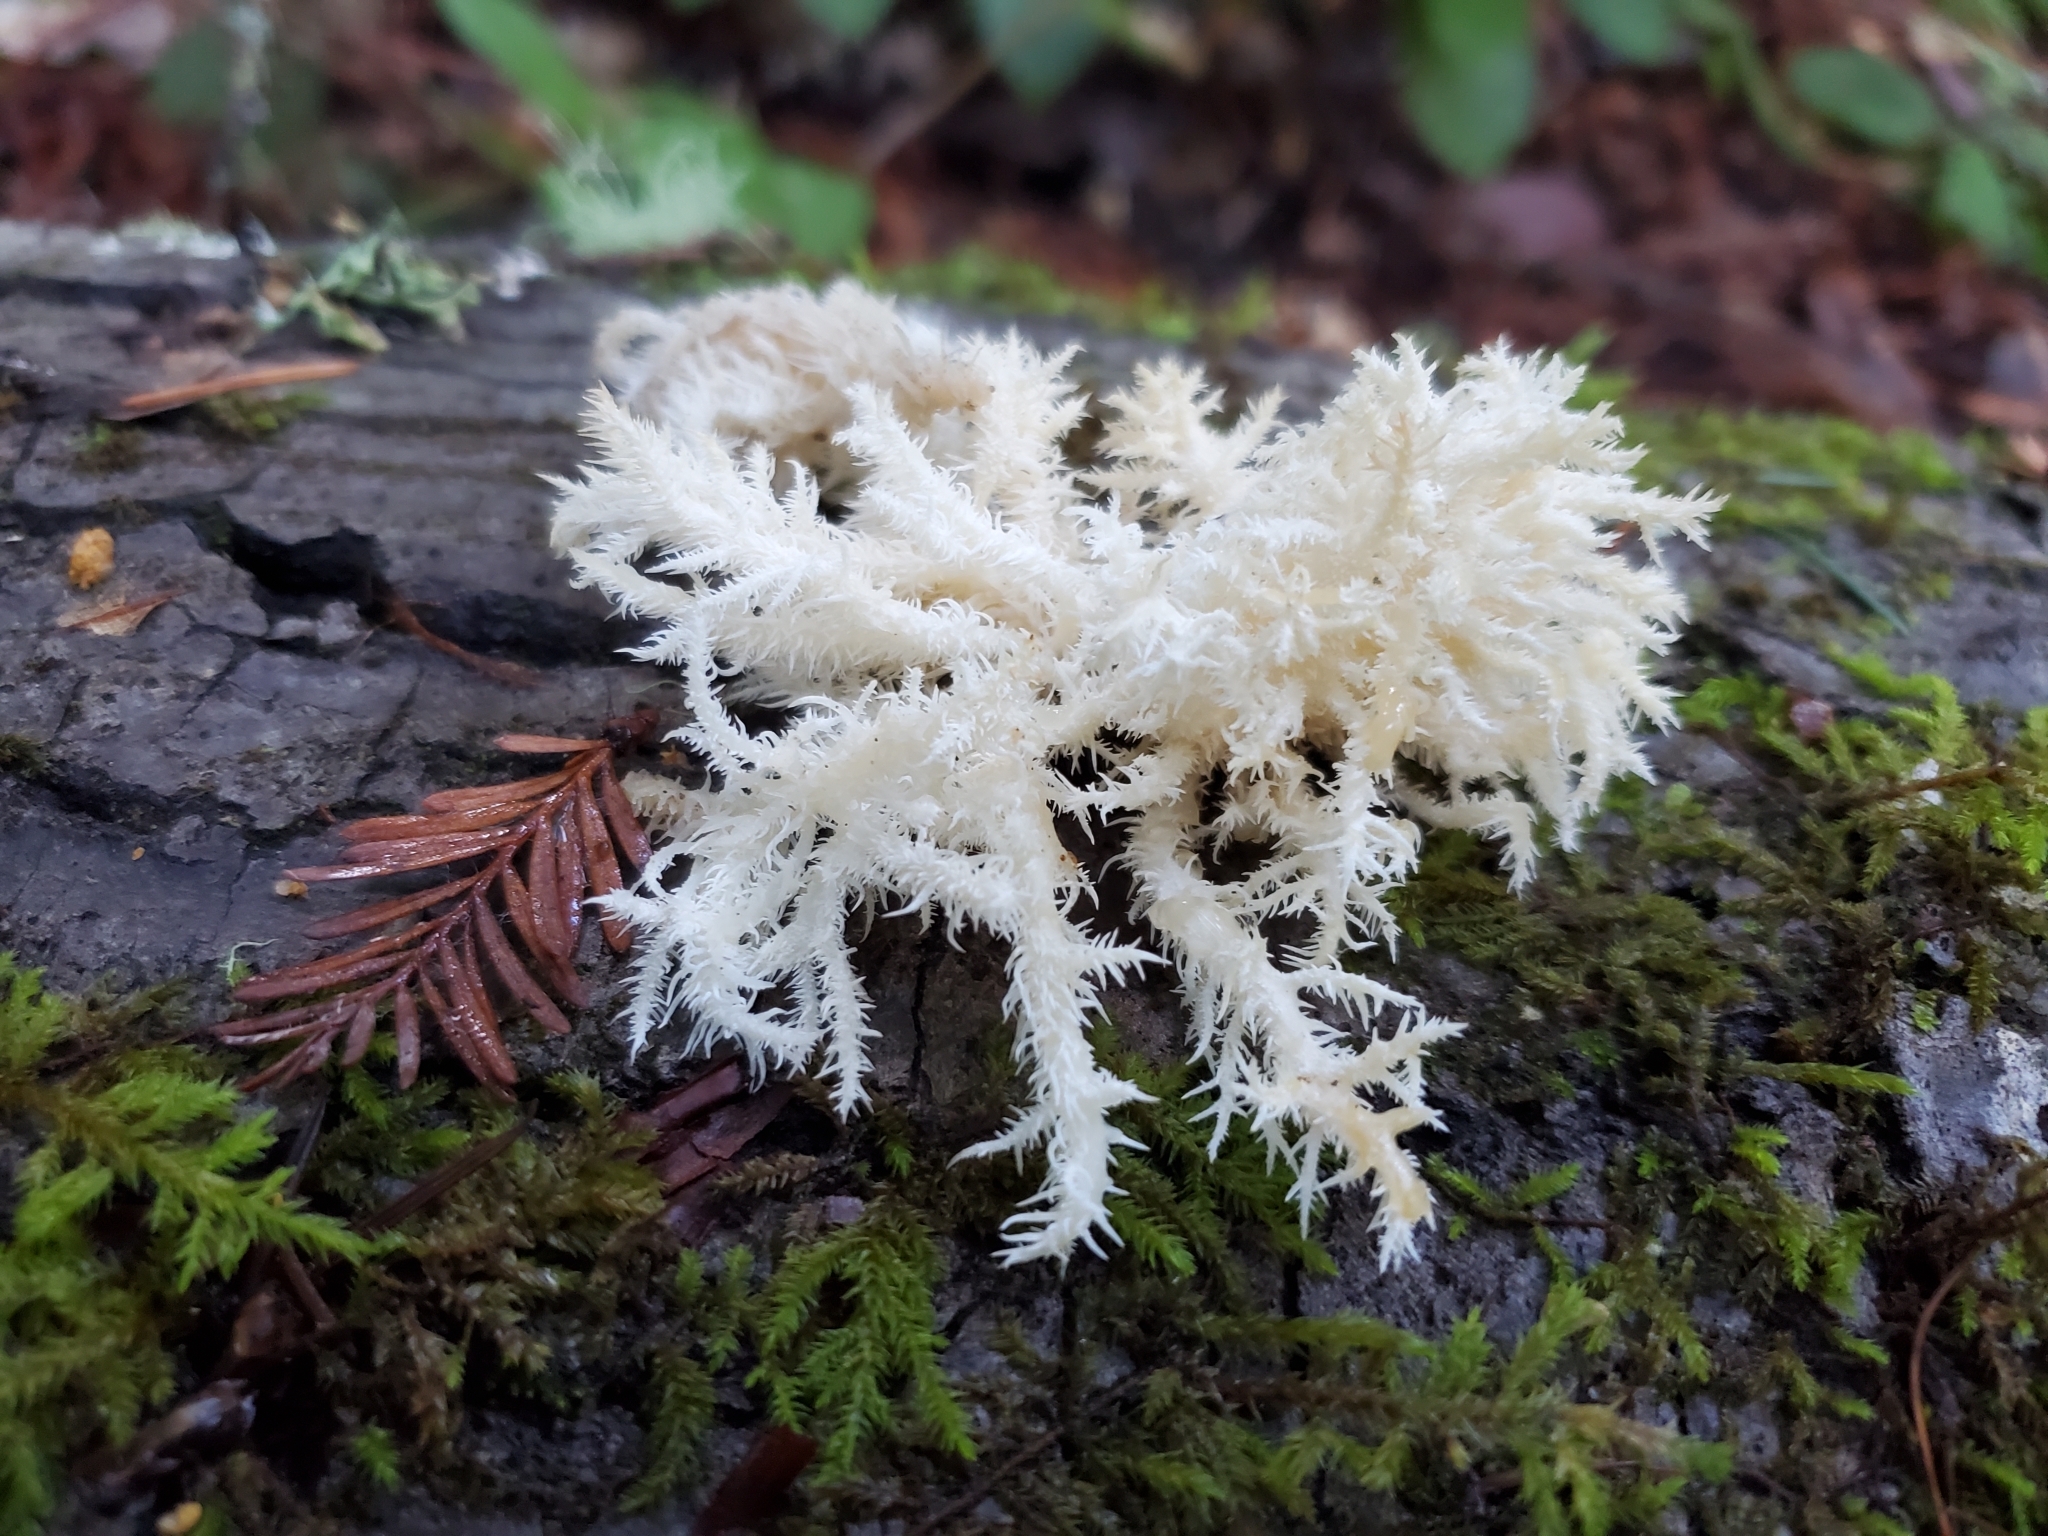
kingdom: Fungi
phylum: Basidiomycota
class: Agaricomycetes
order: Russulales
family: Hericiaceae
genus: Hericium
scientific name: Hericium coralloides
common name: Coral tooth
